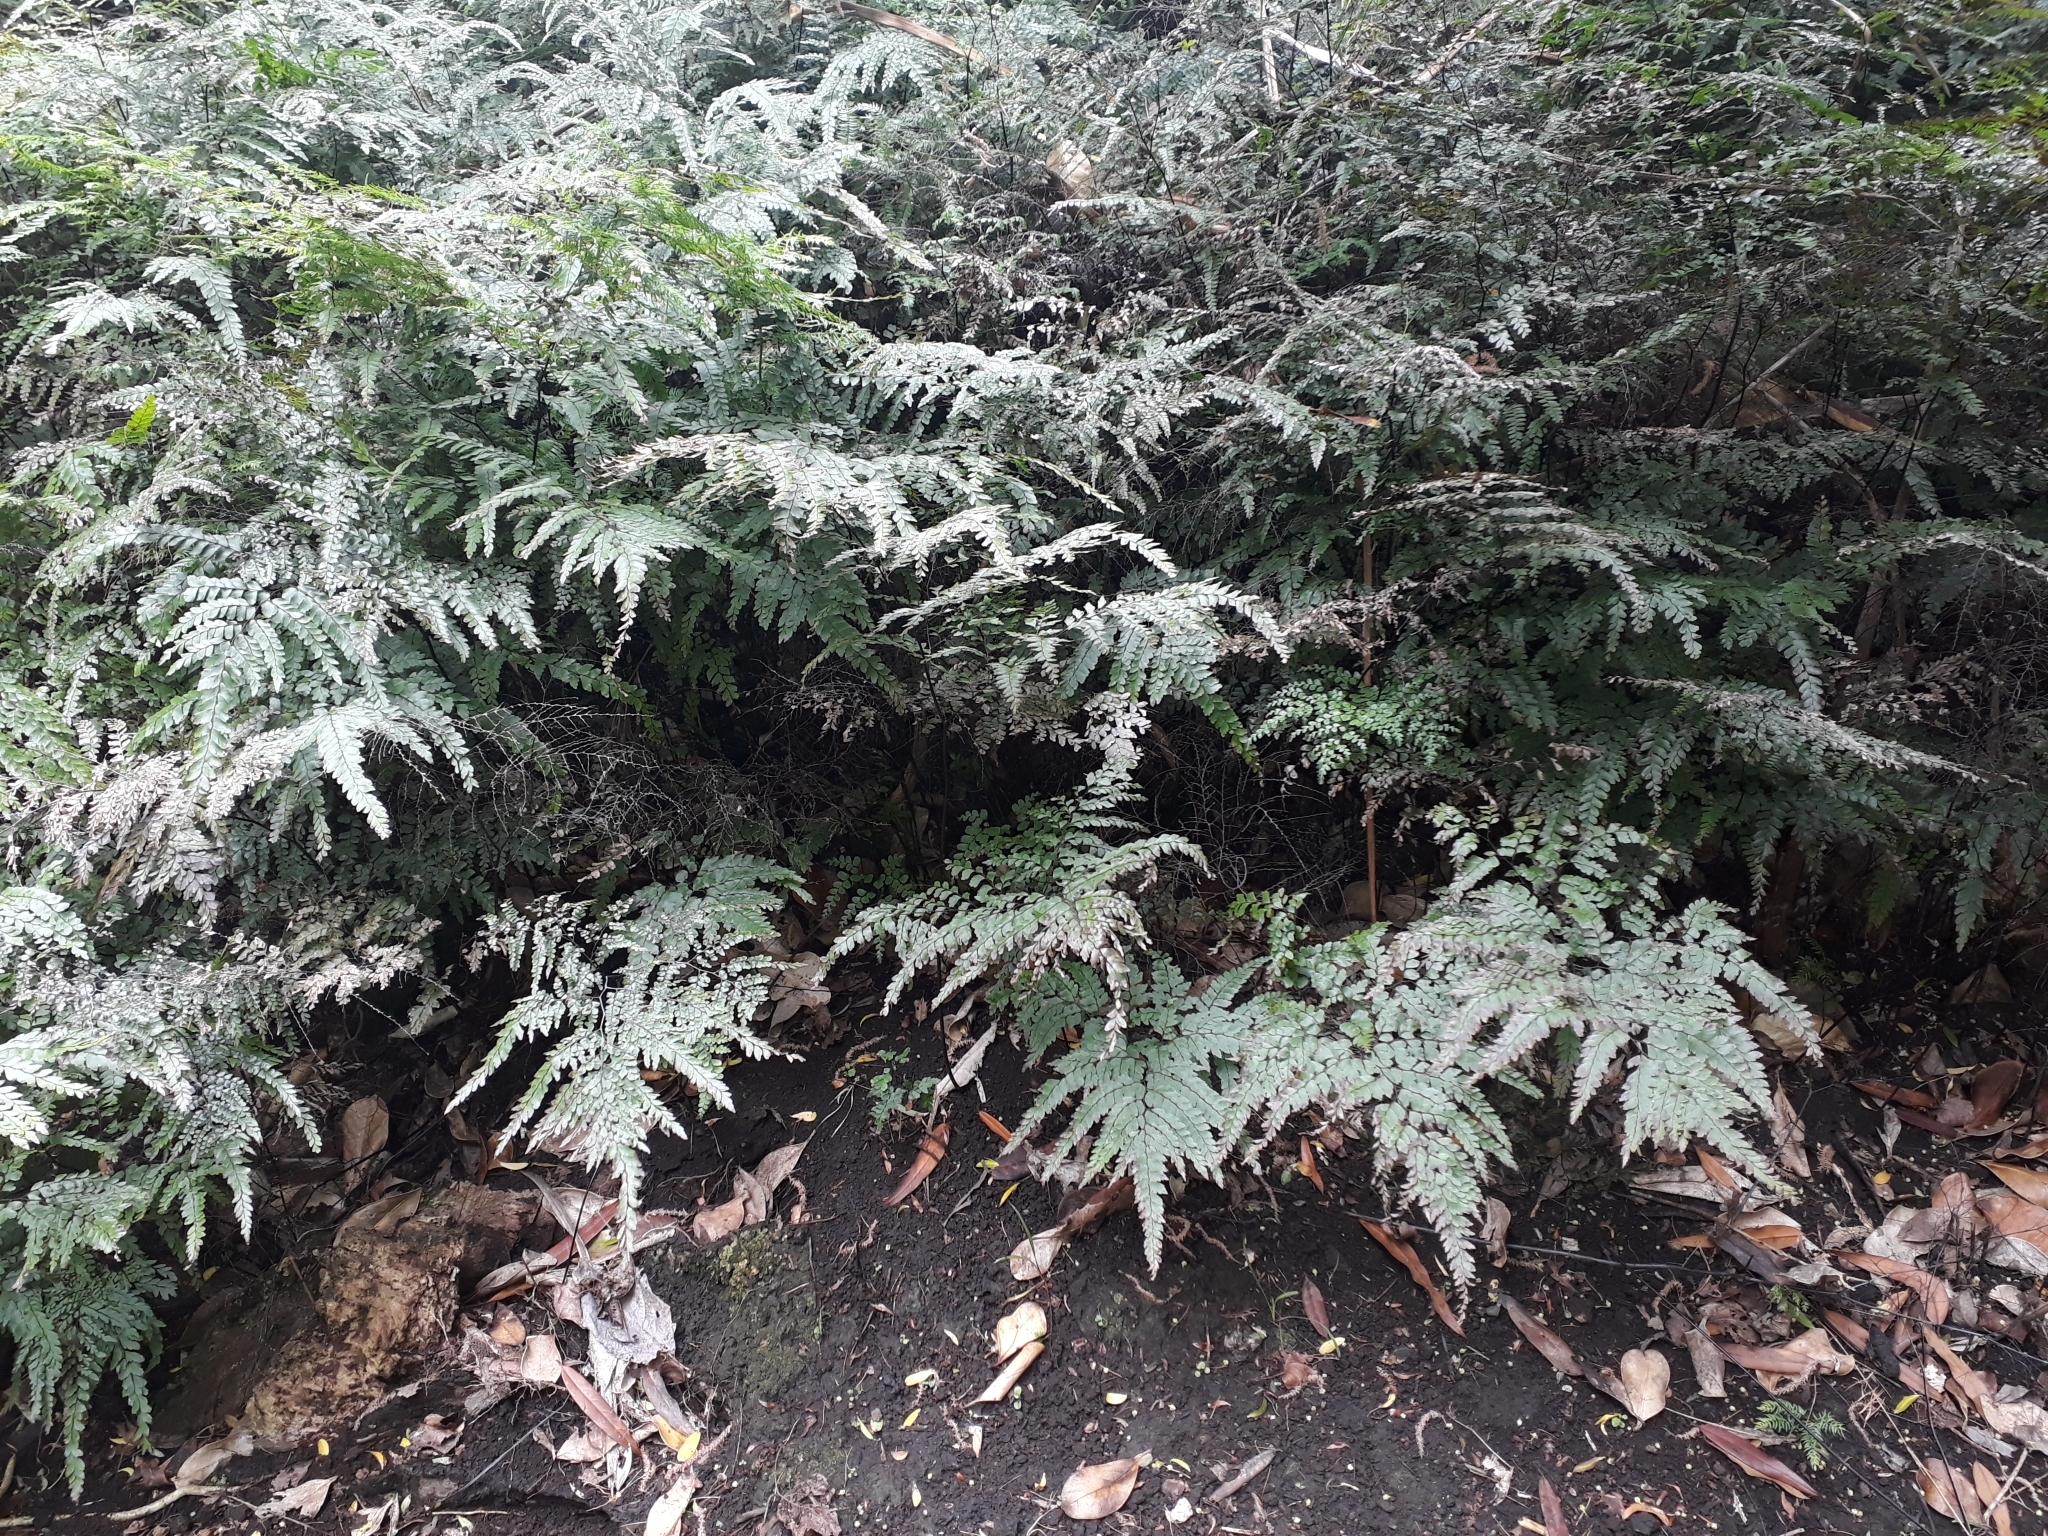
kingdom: Plantae
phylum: Tracheophyta
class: Polypodiopsida
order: Polypodiales
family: Pteridaceae
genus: Adiantum
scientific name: Adiantum formosum
